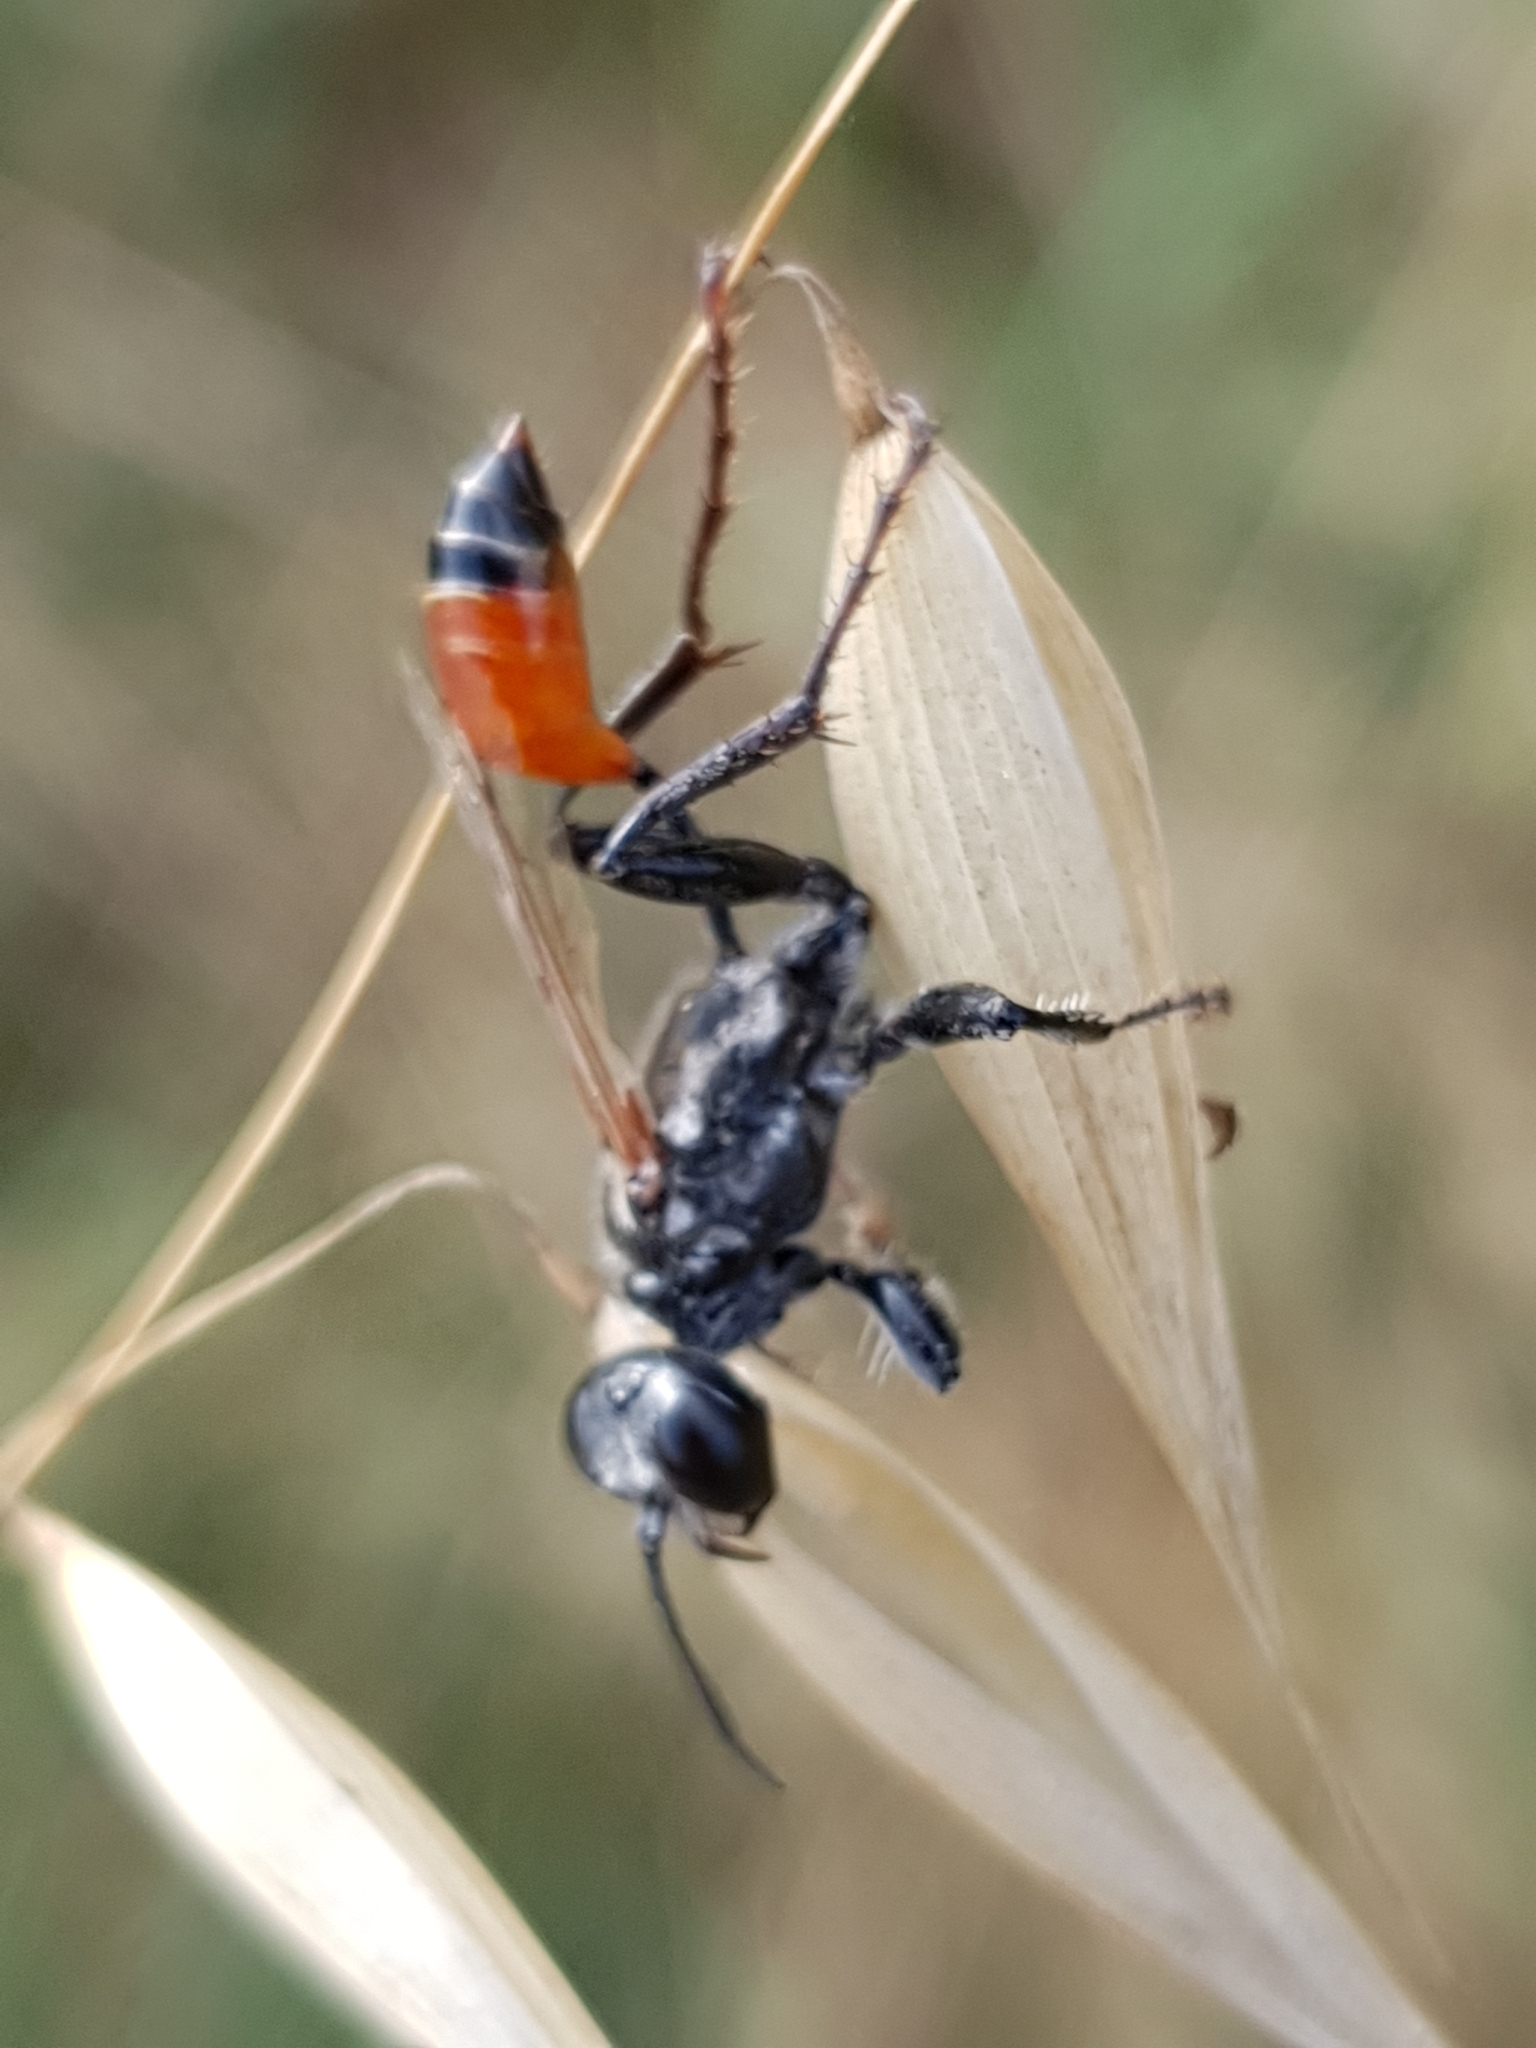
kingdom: Animalia
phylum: Arthropoda
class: Insecta
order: Hymenoptera
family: Sphecidae
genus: Prionyx
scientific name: Prionyx kirbii
